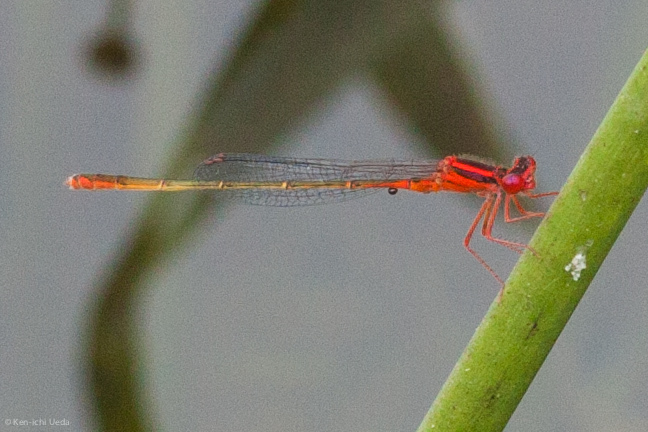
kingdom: Animalia
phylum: Arthropoda
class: Insecta
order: Odonata
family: Coenagrionidae
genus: Enallagma
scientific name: Enallagma pictum
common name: Scarlet bluet
